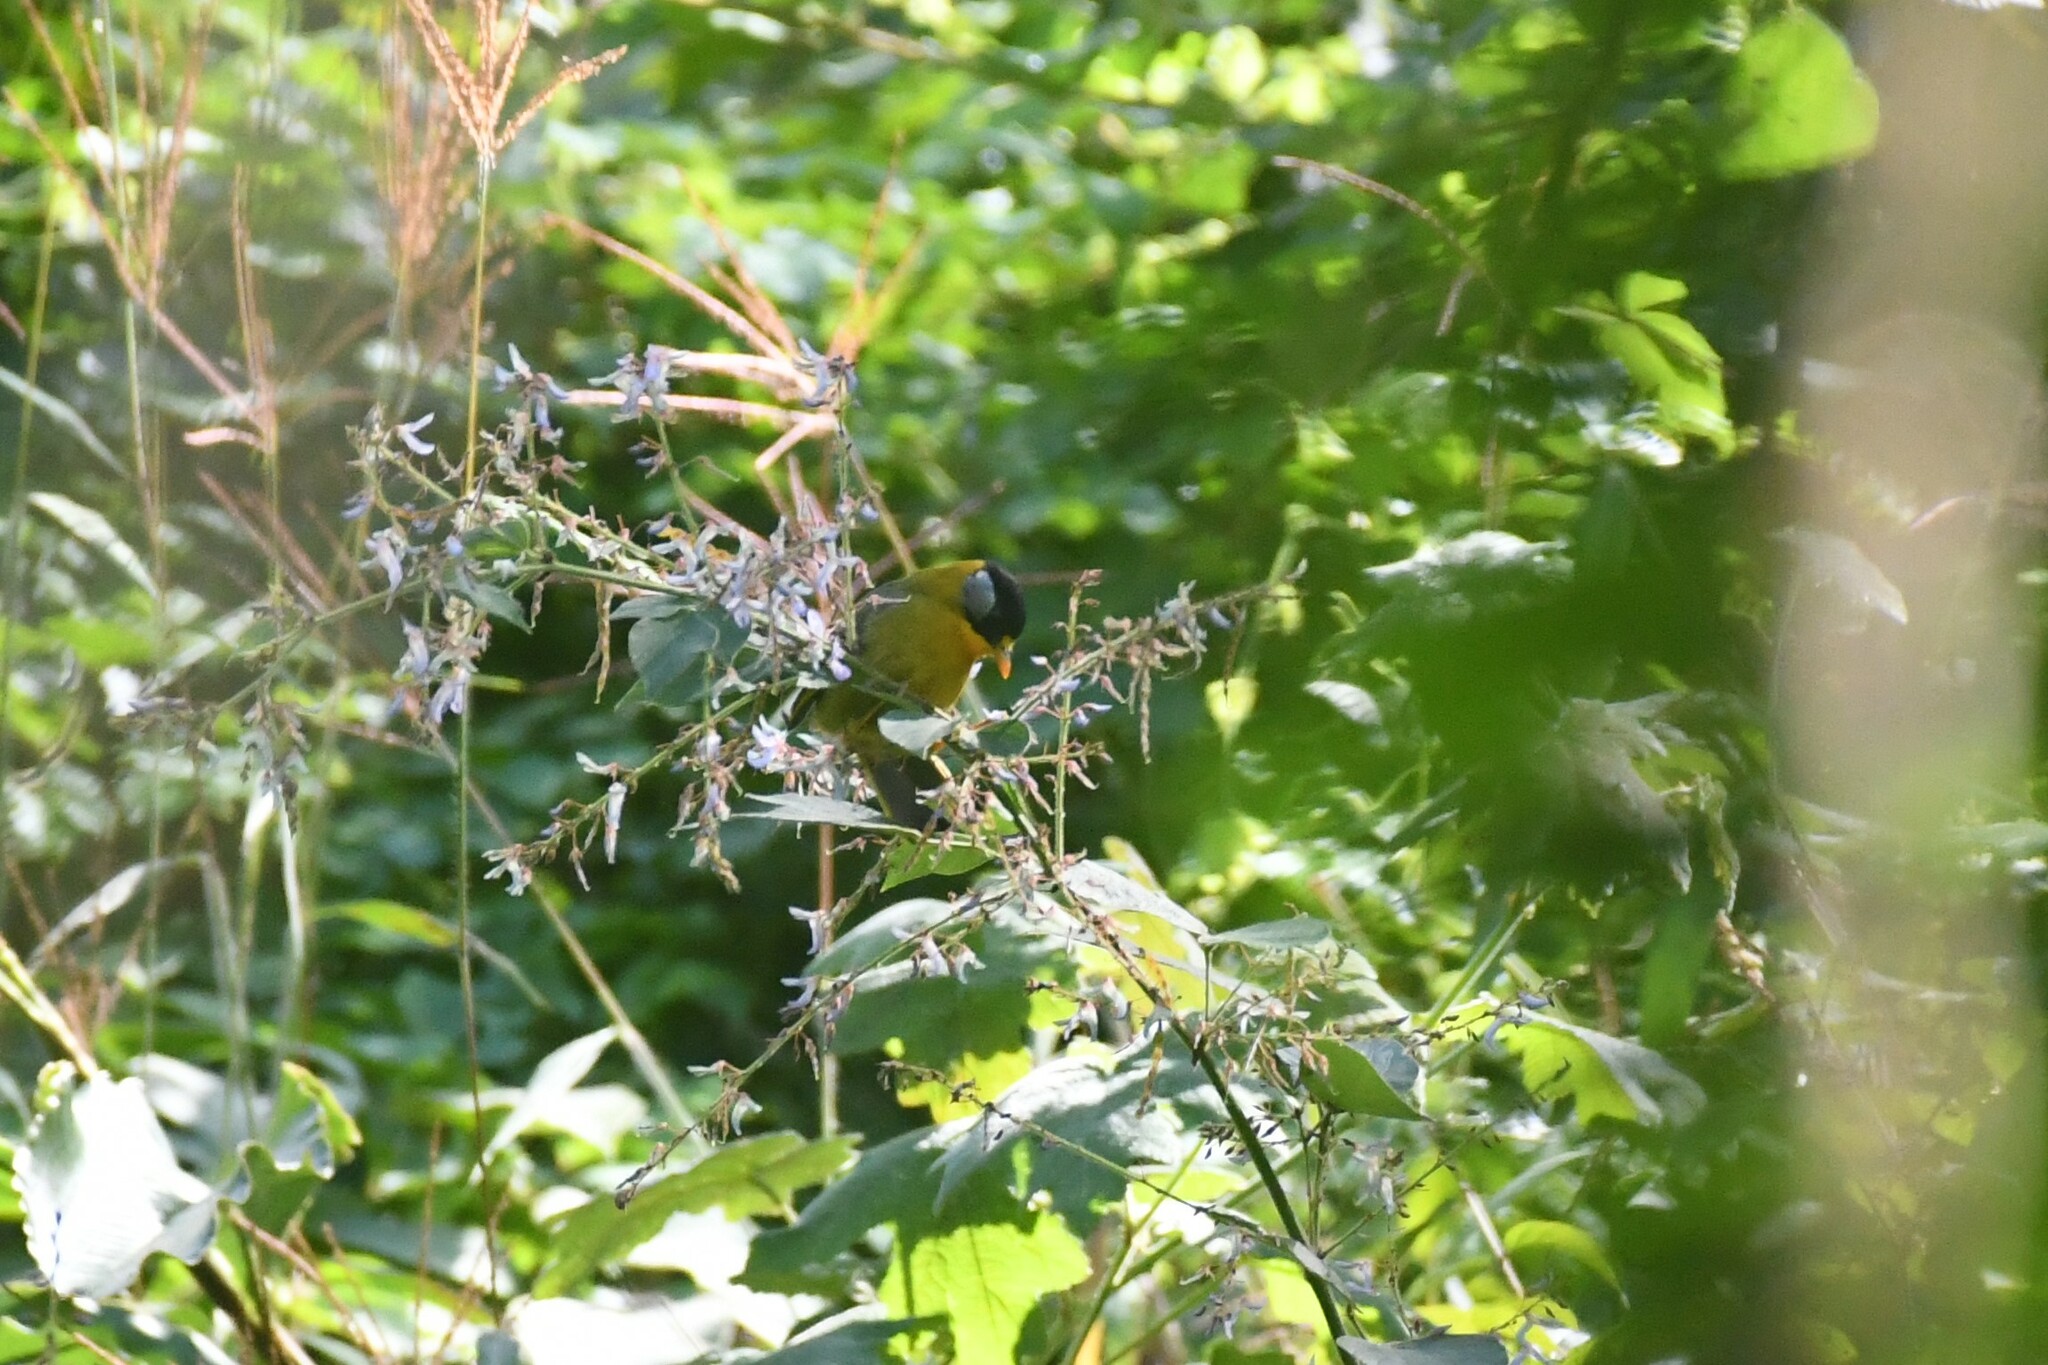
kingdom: Animalia
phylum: Chordata
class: Aves
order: Passeriformes
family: Leiothrichidae
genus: Leiothrix
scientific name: Leiothrix argentauris
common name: Silver-eared mesia
